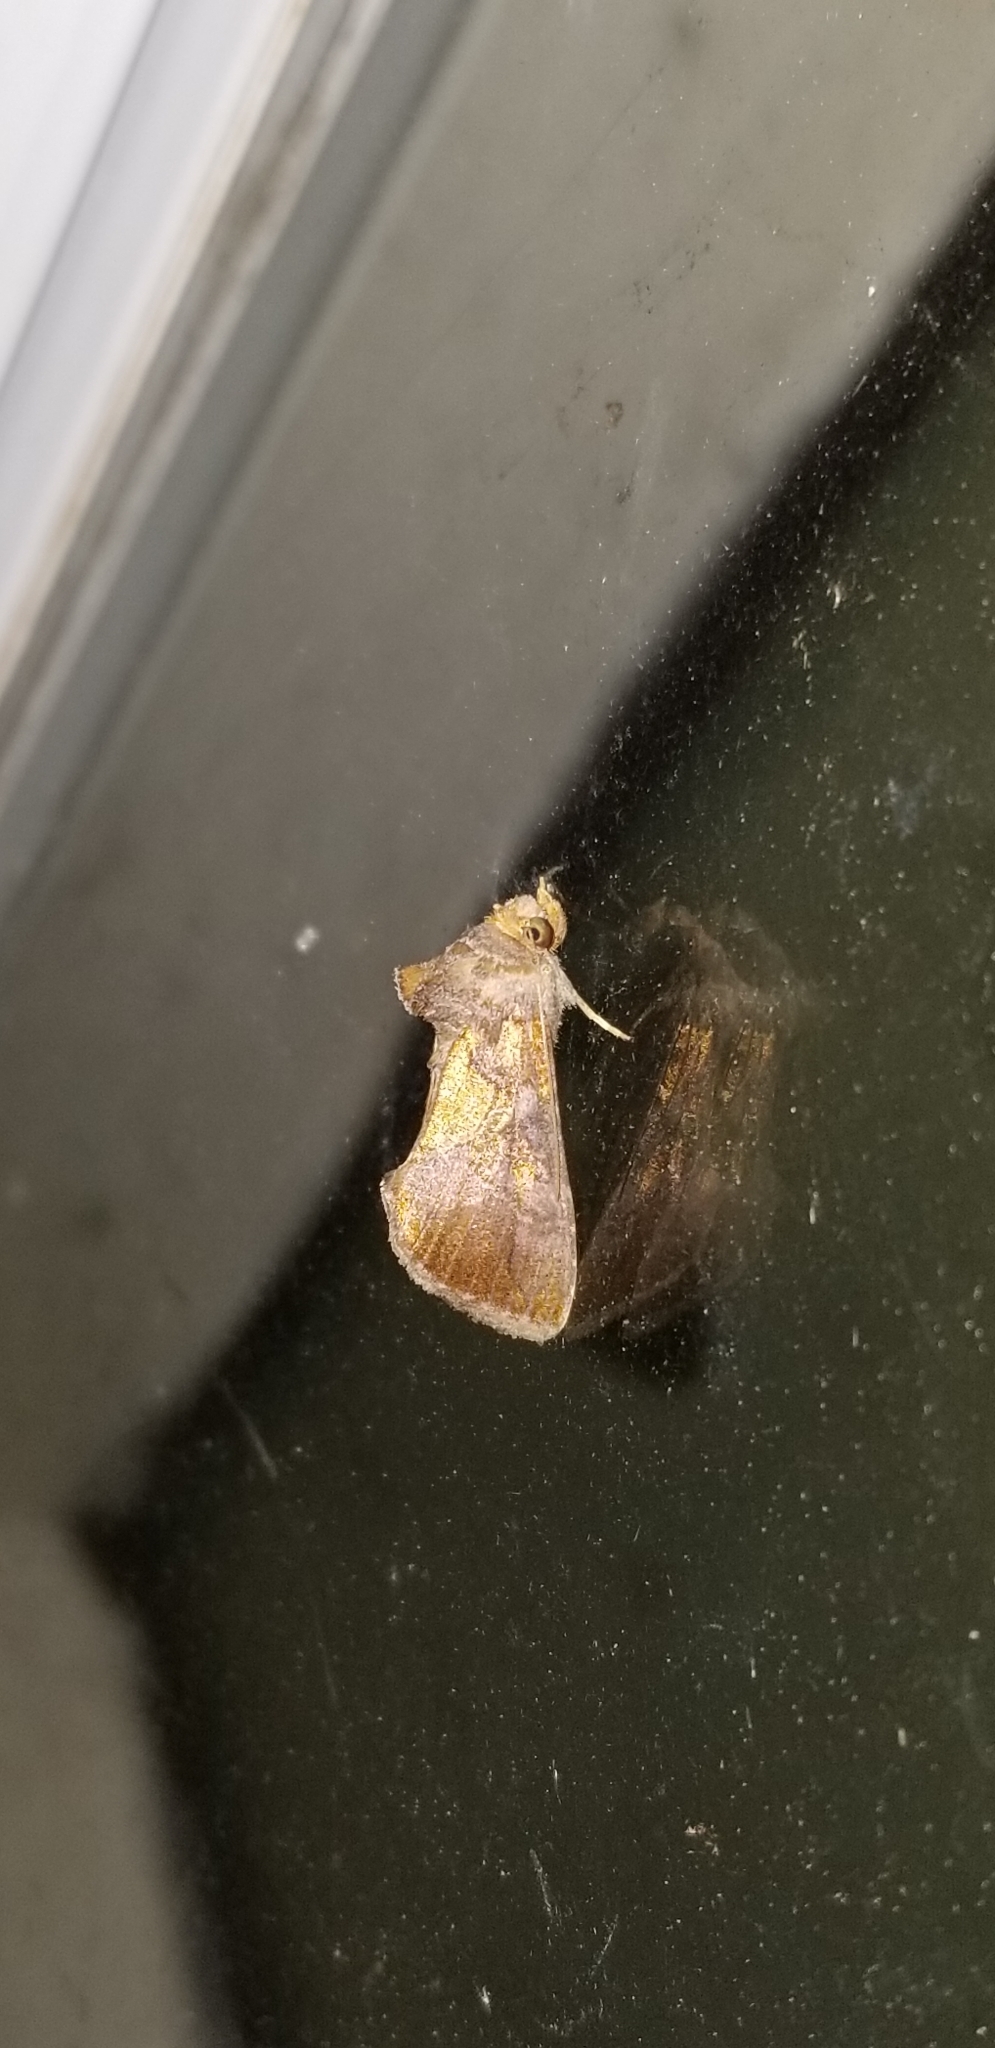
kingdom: Animalia
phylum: Arthropoda
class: Insecta
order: Lepidoptera
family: Noctuidae
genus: Argyrogramma
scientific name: Argyrogramma verruca
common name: Golden looper moth
